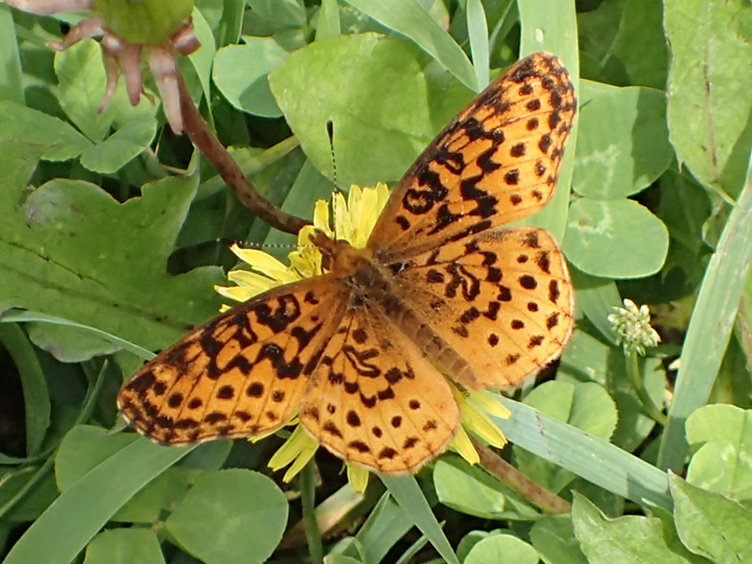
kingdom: Animalia
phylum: Arthropoda
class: Insecta
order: Lepidoptera
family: Nymphalidae
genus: Clossiana
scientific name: Clossiana toddi
